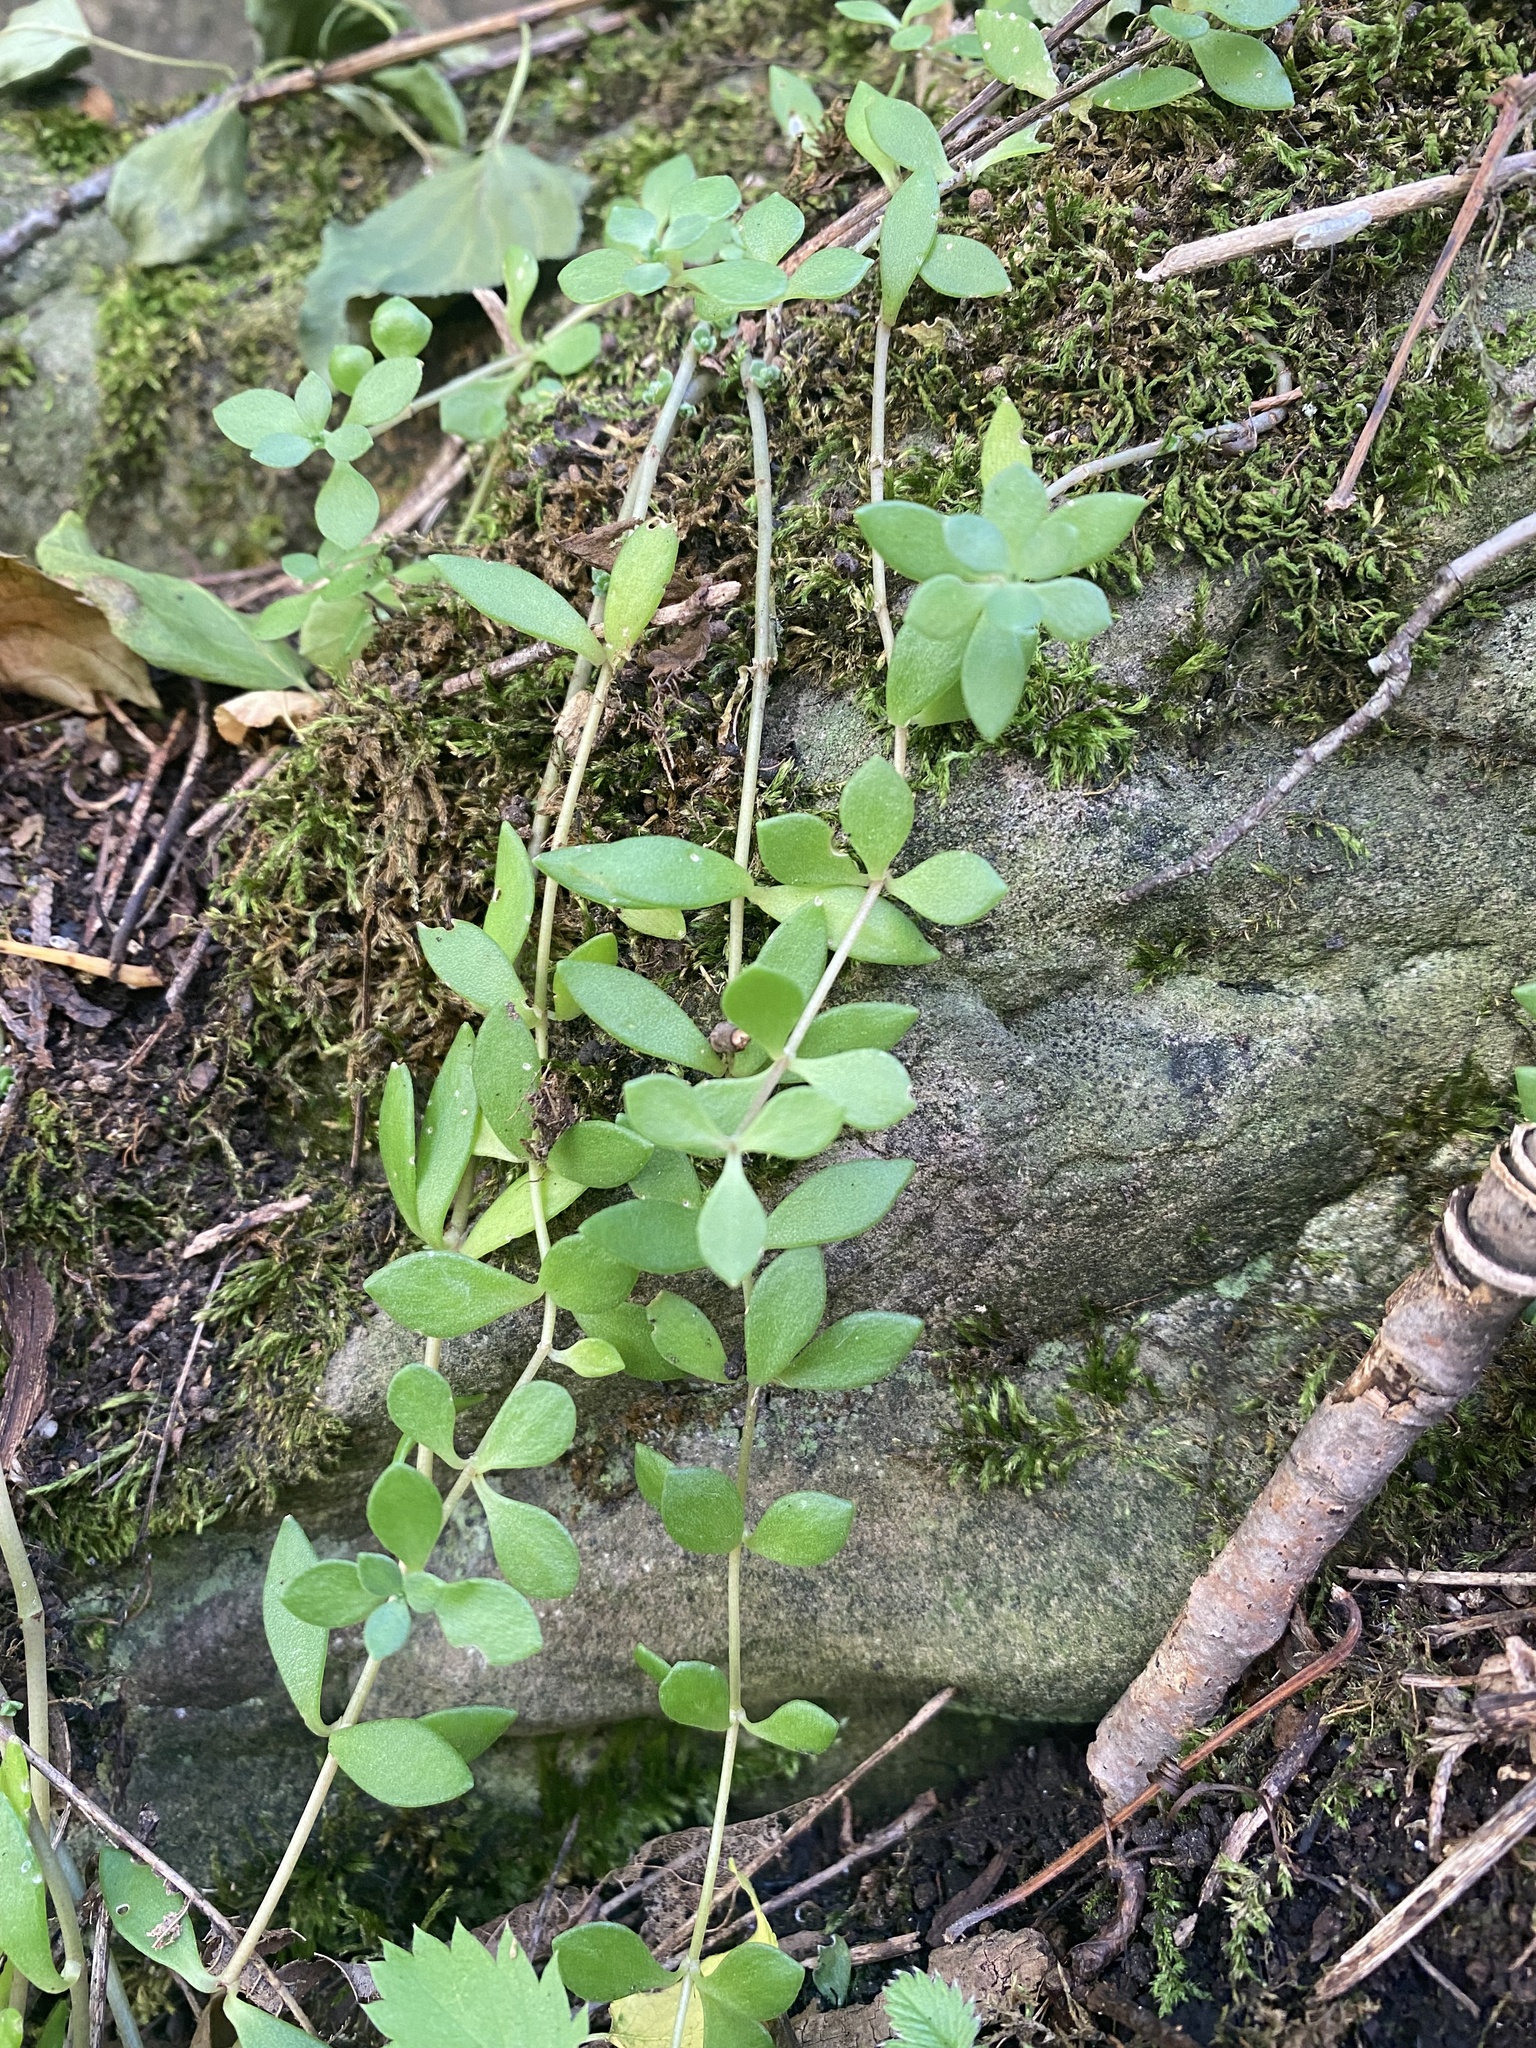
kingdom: Plantae
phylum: Tracheophyta
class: Magnoliopsida
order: Saxifragales
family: Crassulaceae
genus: Sedum
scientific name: Sedum sarmentosum
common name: Stringy stonecrop
